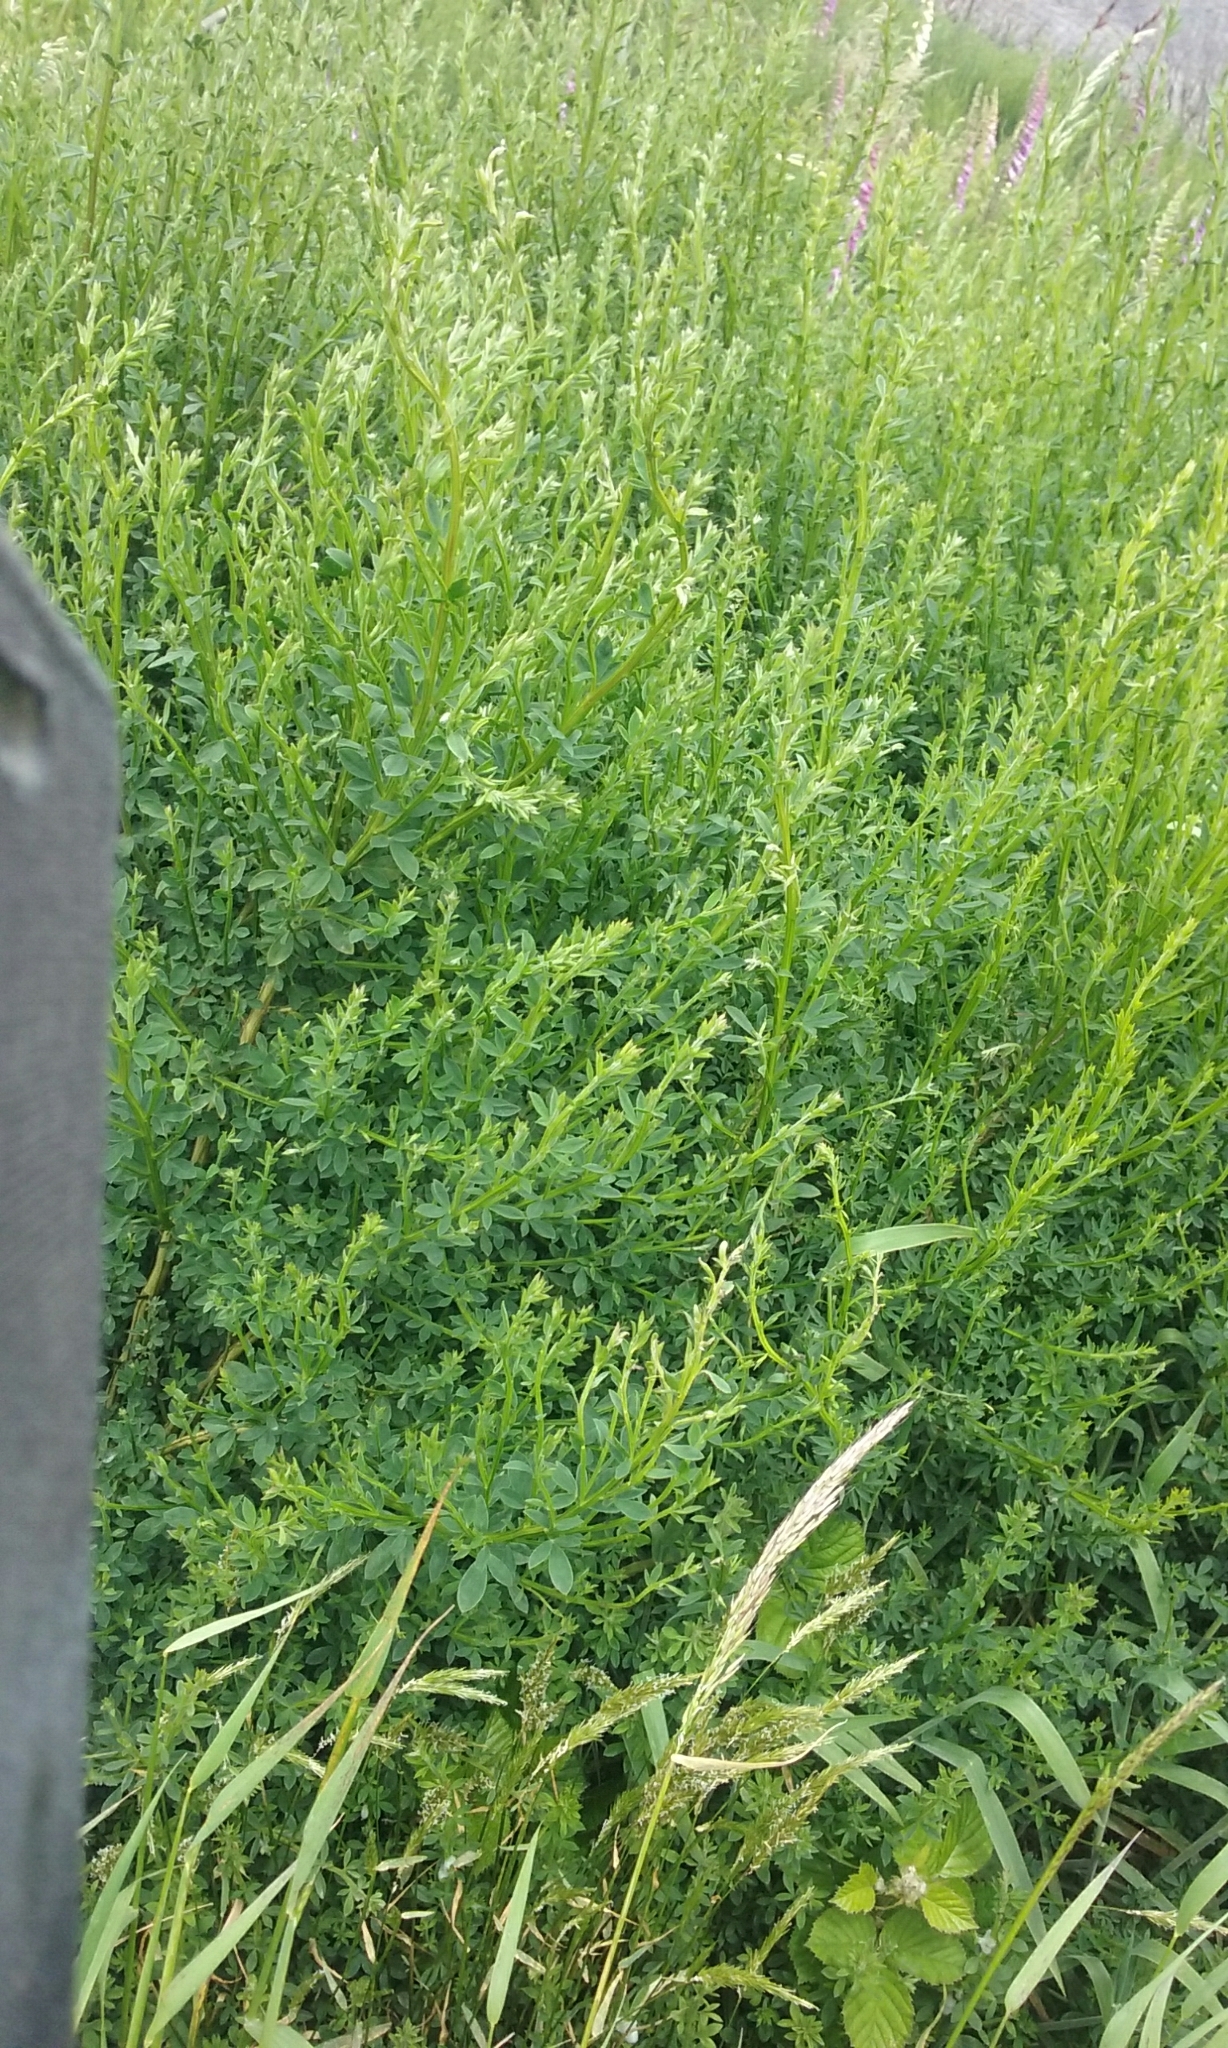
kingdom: Plantae
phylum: Tracheophyta
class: Magnoliopsida
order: Fabales
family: Fabaceae
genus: Cytisus
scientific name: Cytisus scoparius
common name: Scotch broom
